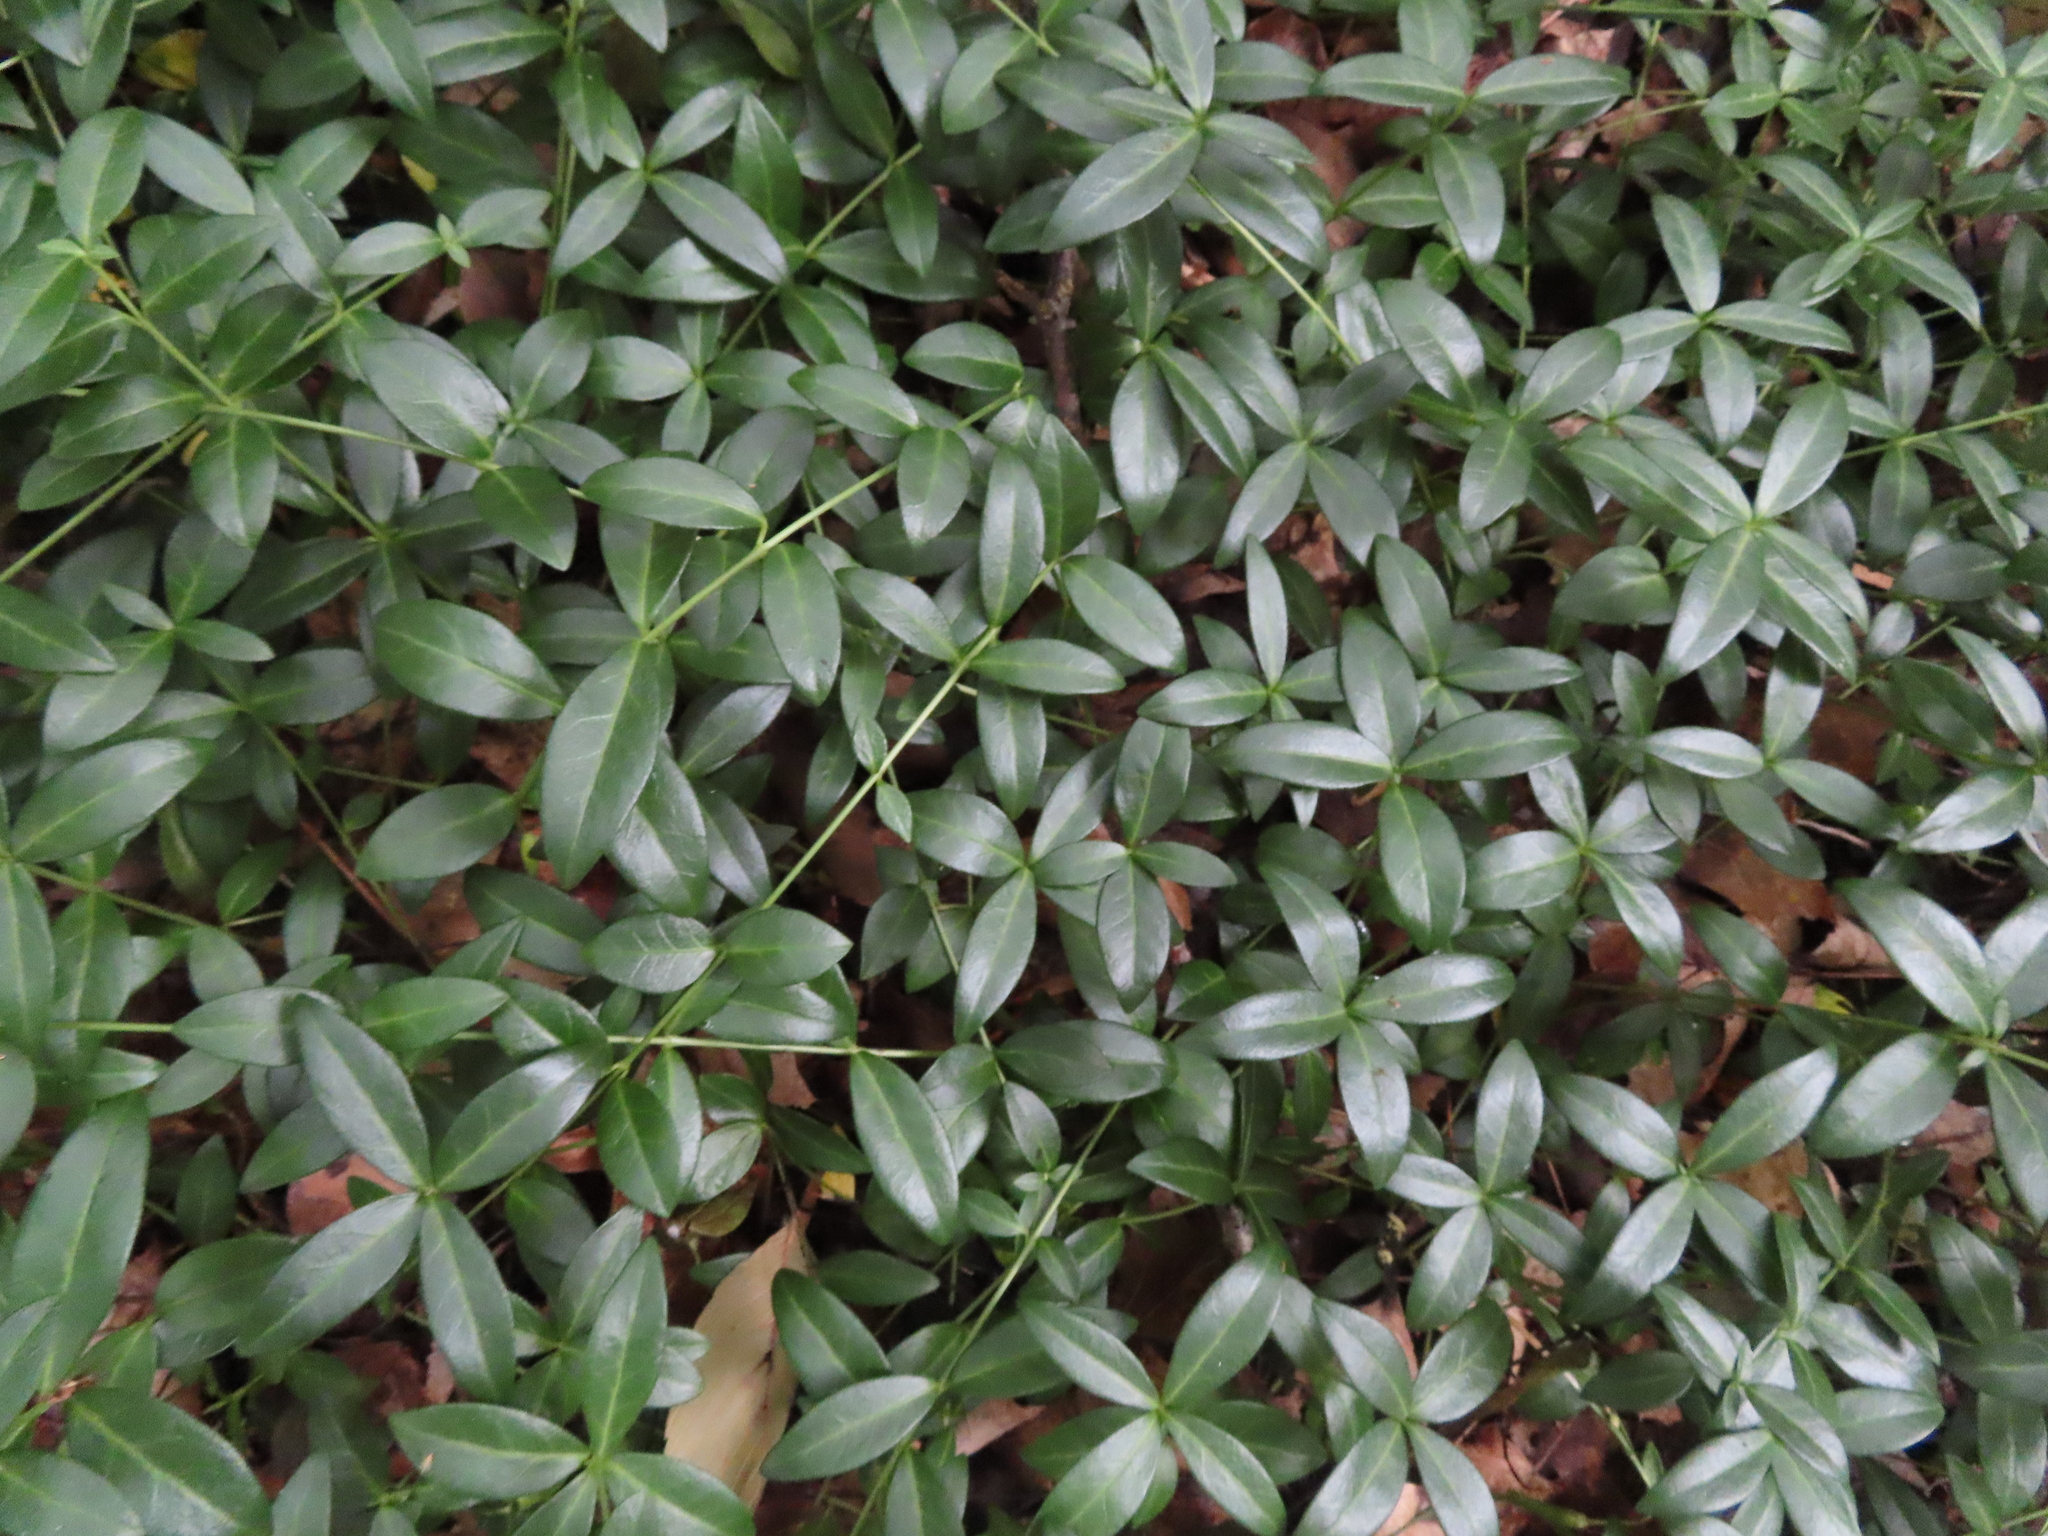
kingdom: Plantae
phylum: Tracheophyta
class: Magnoliopsida
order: Gentianales
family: Apocynaceae
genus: Vinca
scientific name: Vinca minor
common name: Lesser periwinkle
